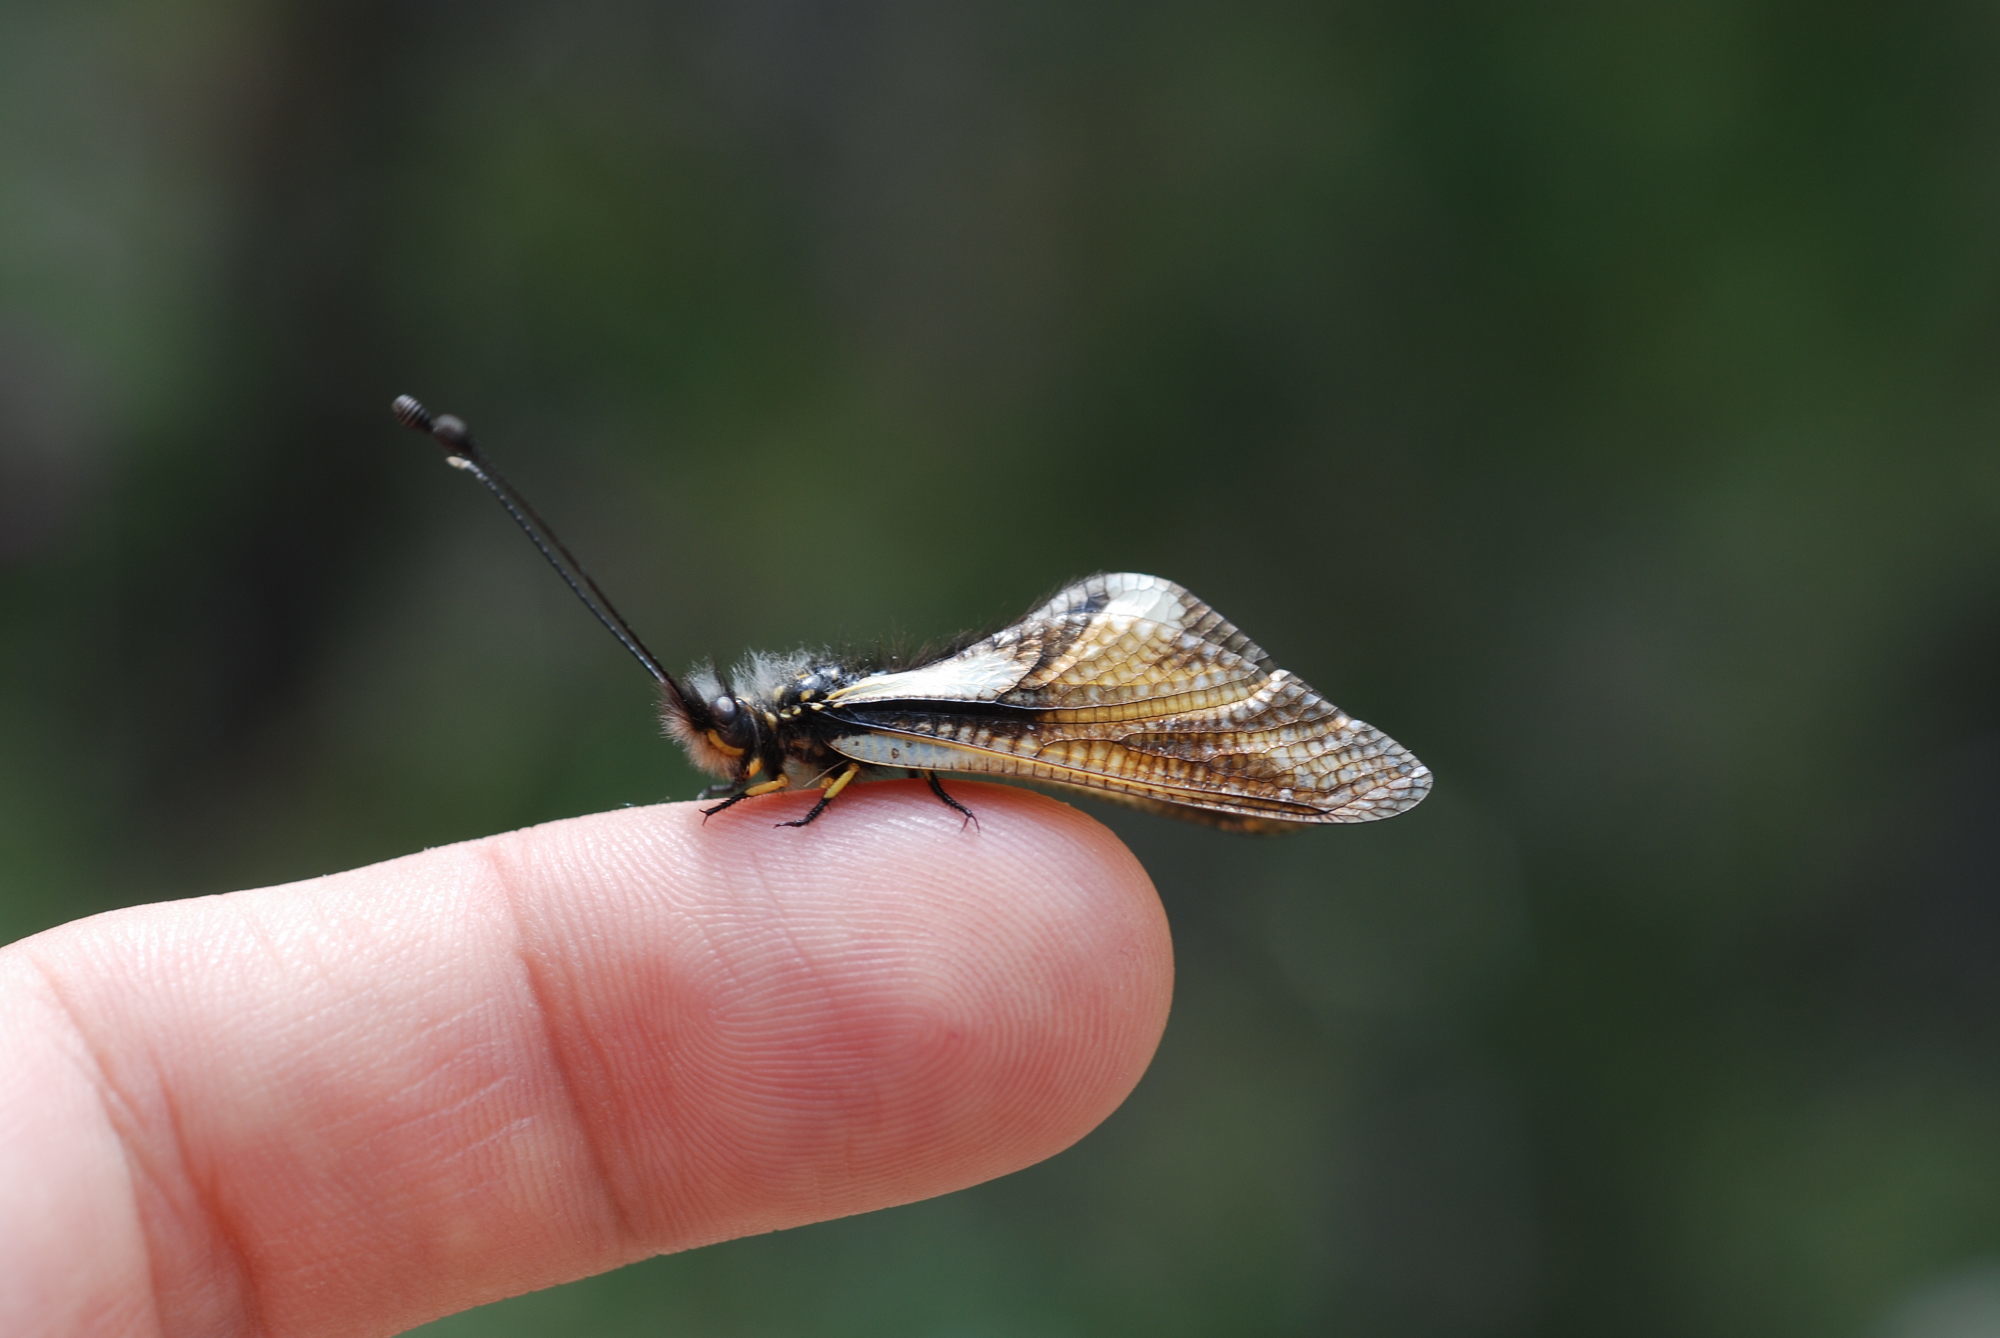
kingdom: Animalia
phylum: Arthropoda
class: Insecta
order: Neuroptera
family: Ascalaphidae
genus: Libelloides
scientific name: Libelloides coccajus
